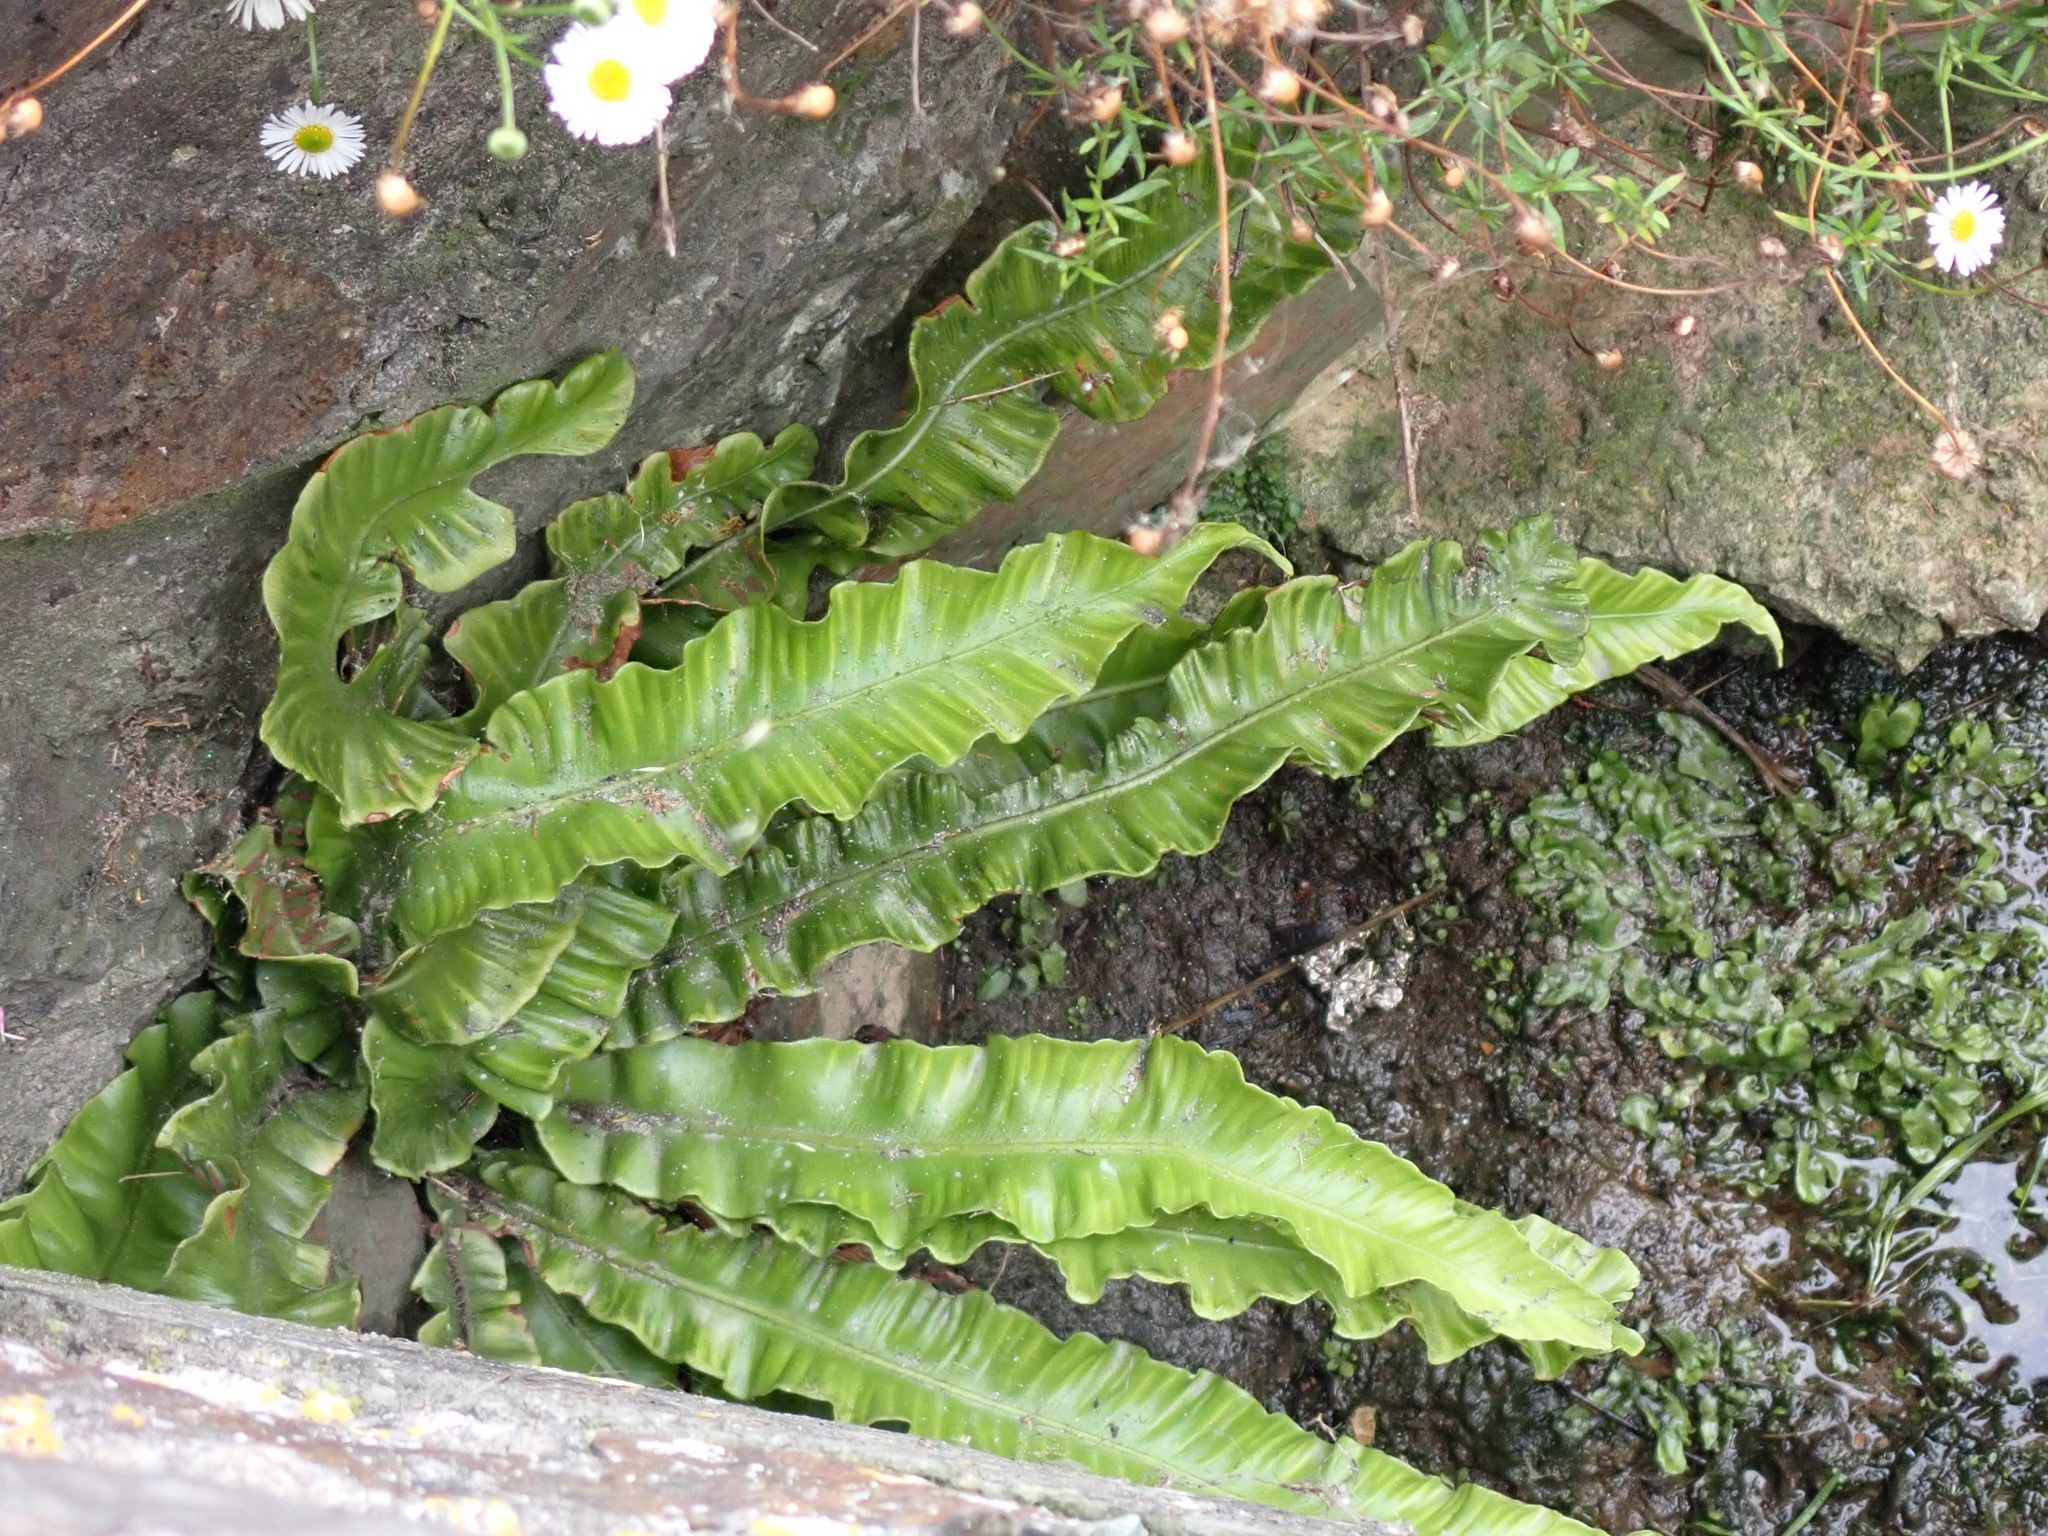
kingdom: Plantae
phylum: Tracheophyta
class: Polypodiopsida
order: Polypodiales
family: Aspleniaceae
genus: Asplenium
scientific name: Asplenium scolopendrium
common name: Hart's-tongue fern
